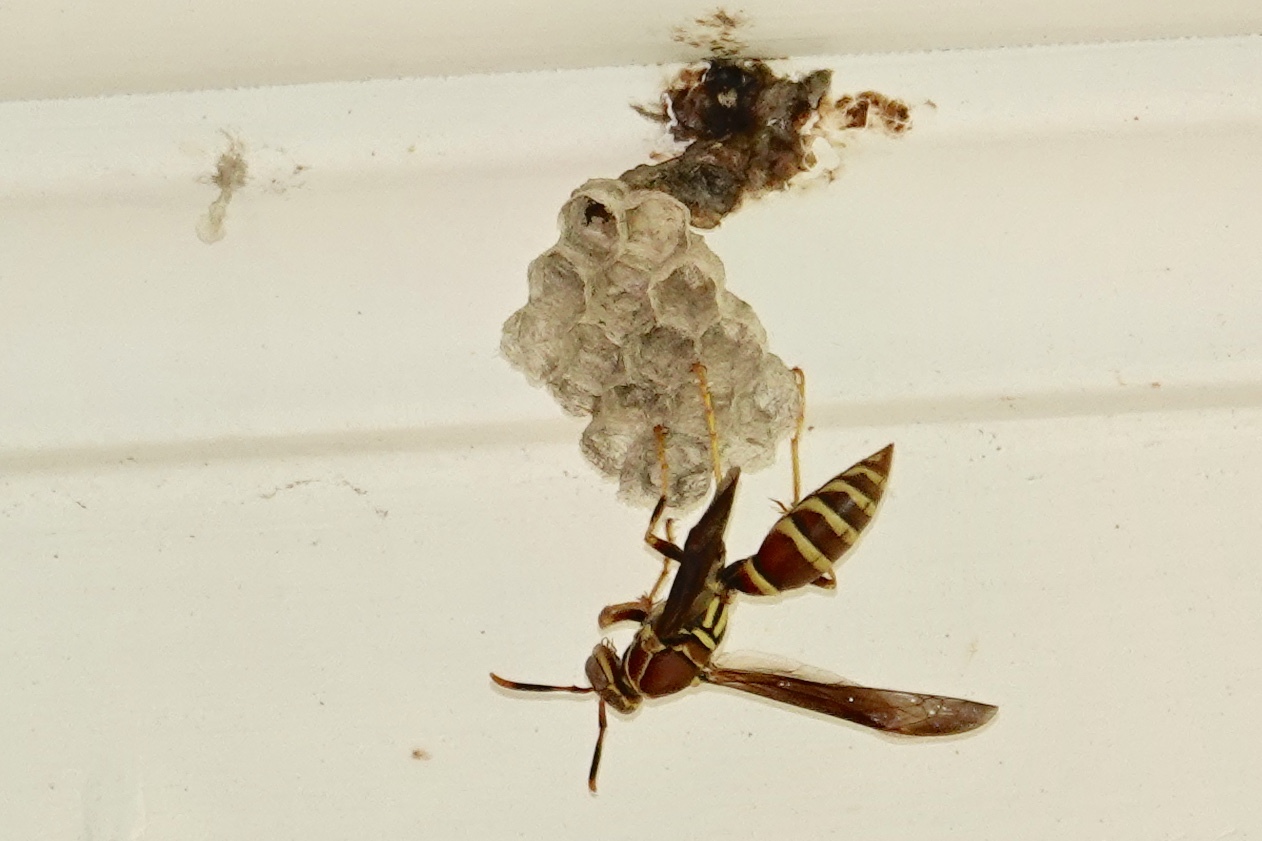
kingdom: Animalia
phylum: Arthropoda
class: Insecta
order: Hymenoptera
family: Eumenidae
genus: Polistes
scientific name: Polistes exclamans
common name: Paper wasp
